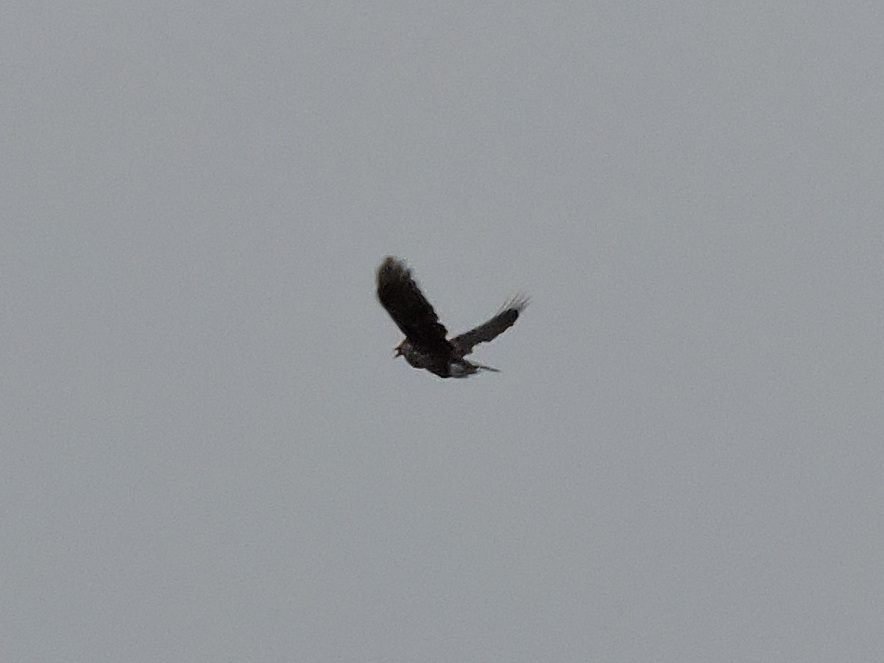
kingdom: Animalia
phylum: Chordata
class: Aves
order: Passeriformes
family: Corvidae
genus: Nucifraga
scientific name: Nucifraga caryocatactes
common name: Spotted nutcracker
